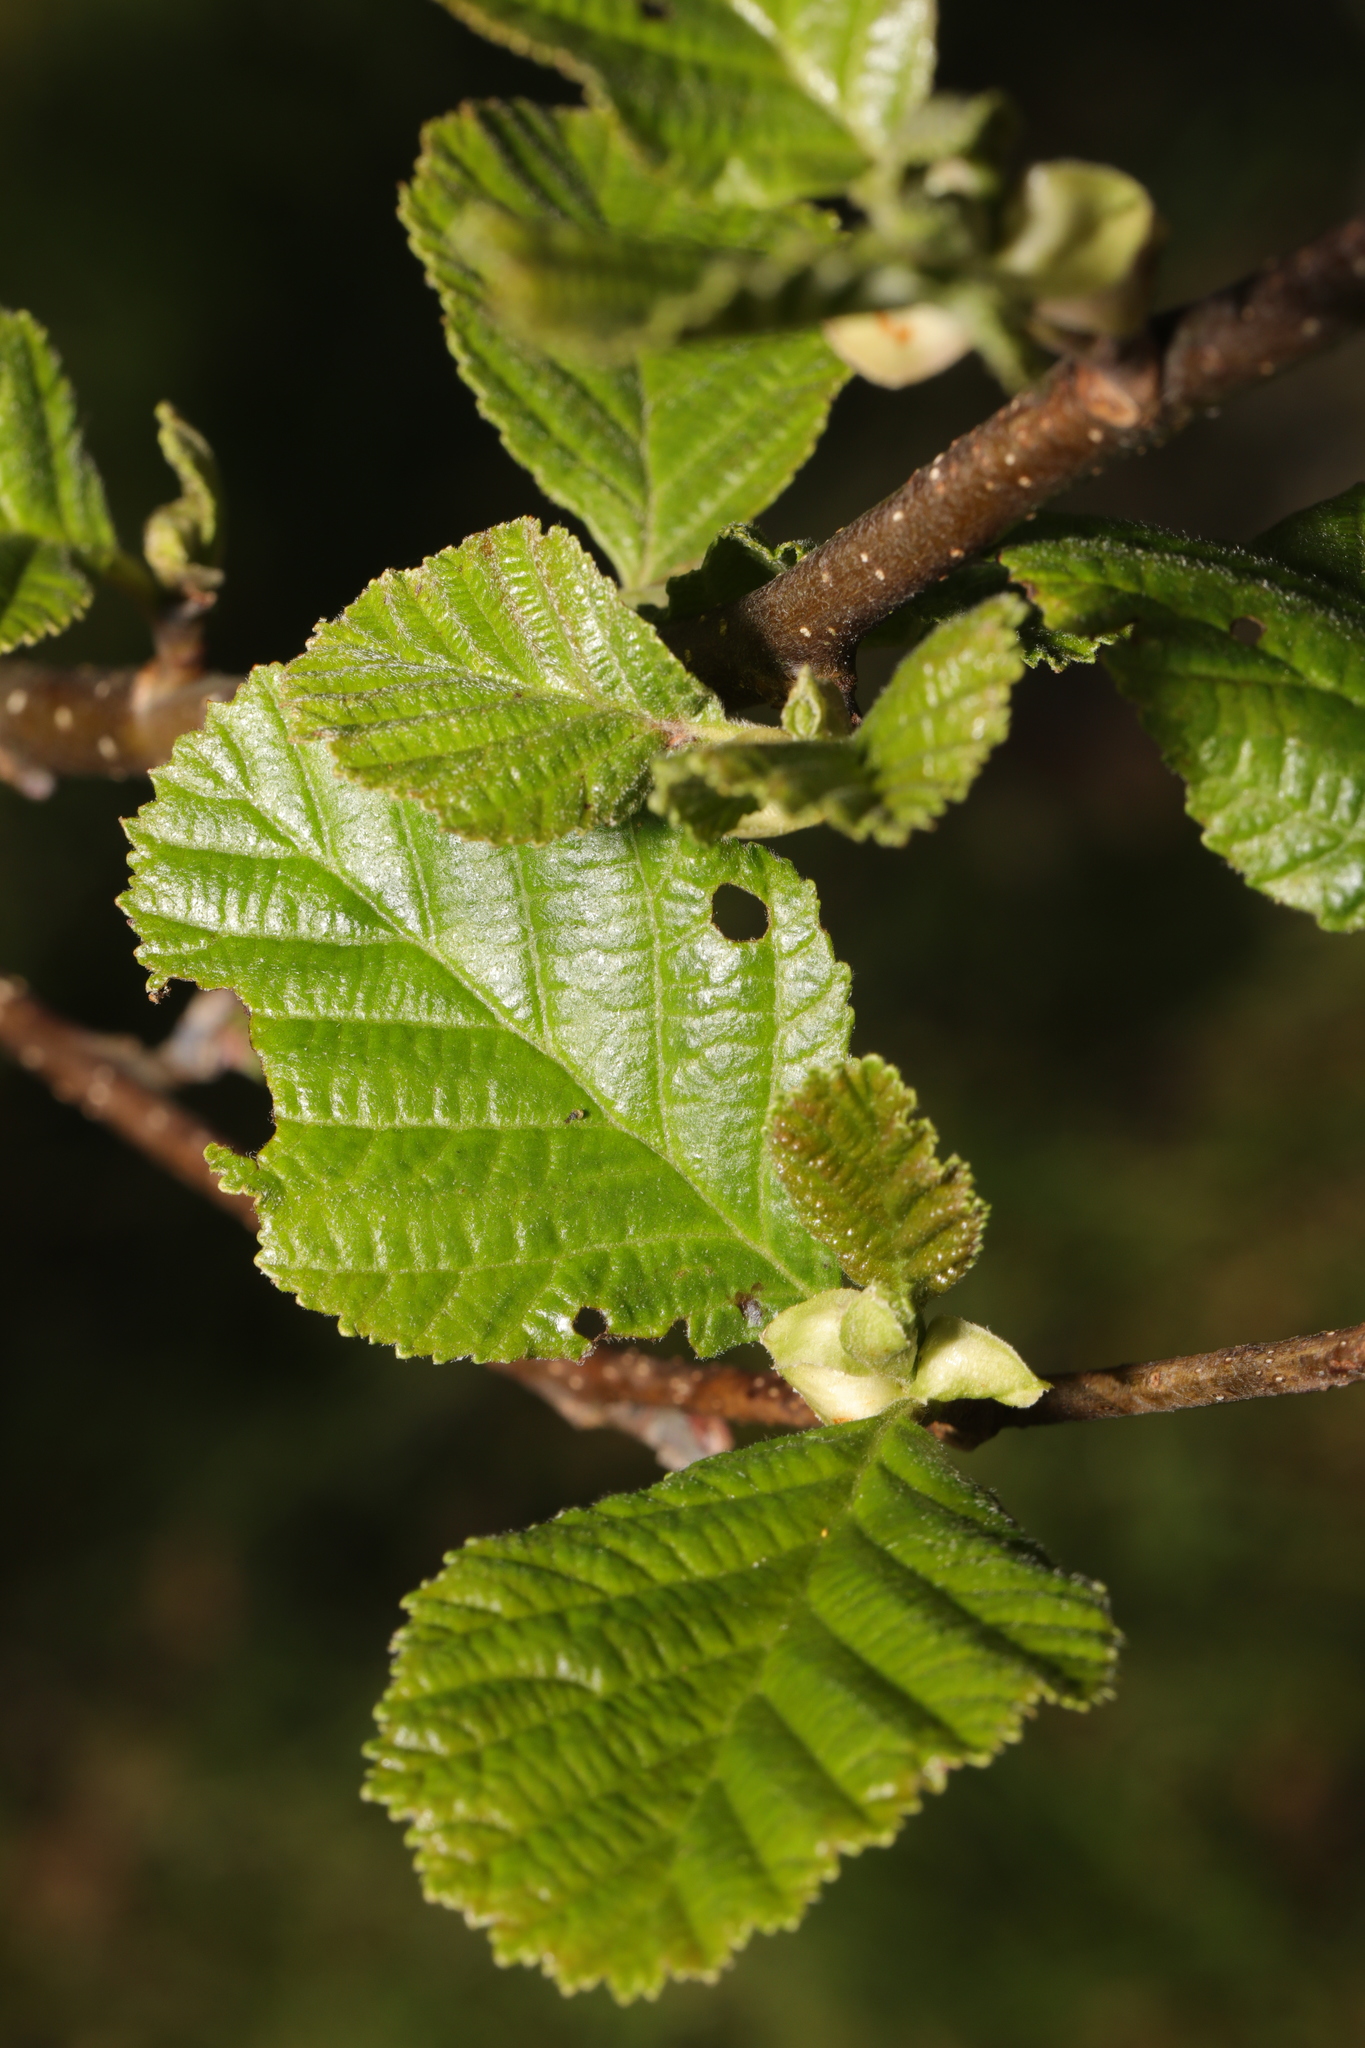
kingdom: Plantae
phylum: Tracheophyta
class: Magnoliopsida
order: Fagales
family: Betulaceae
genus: Alnus
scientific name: Alnus glutinosa
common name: Black alder
